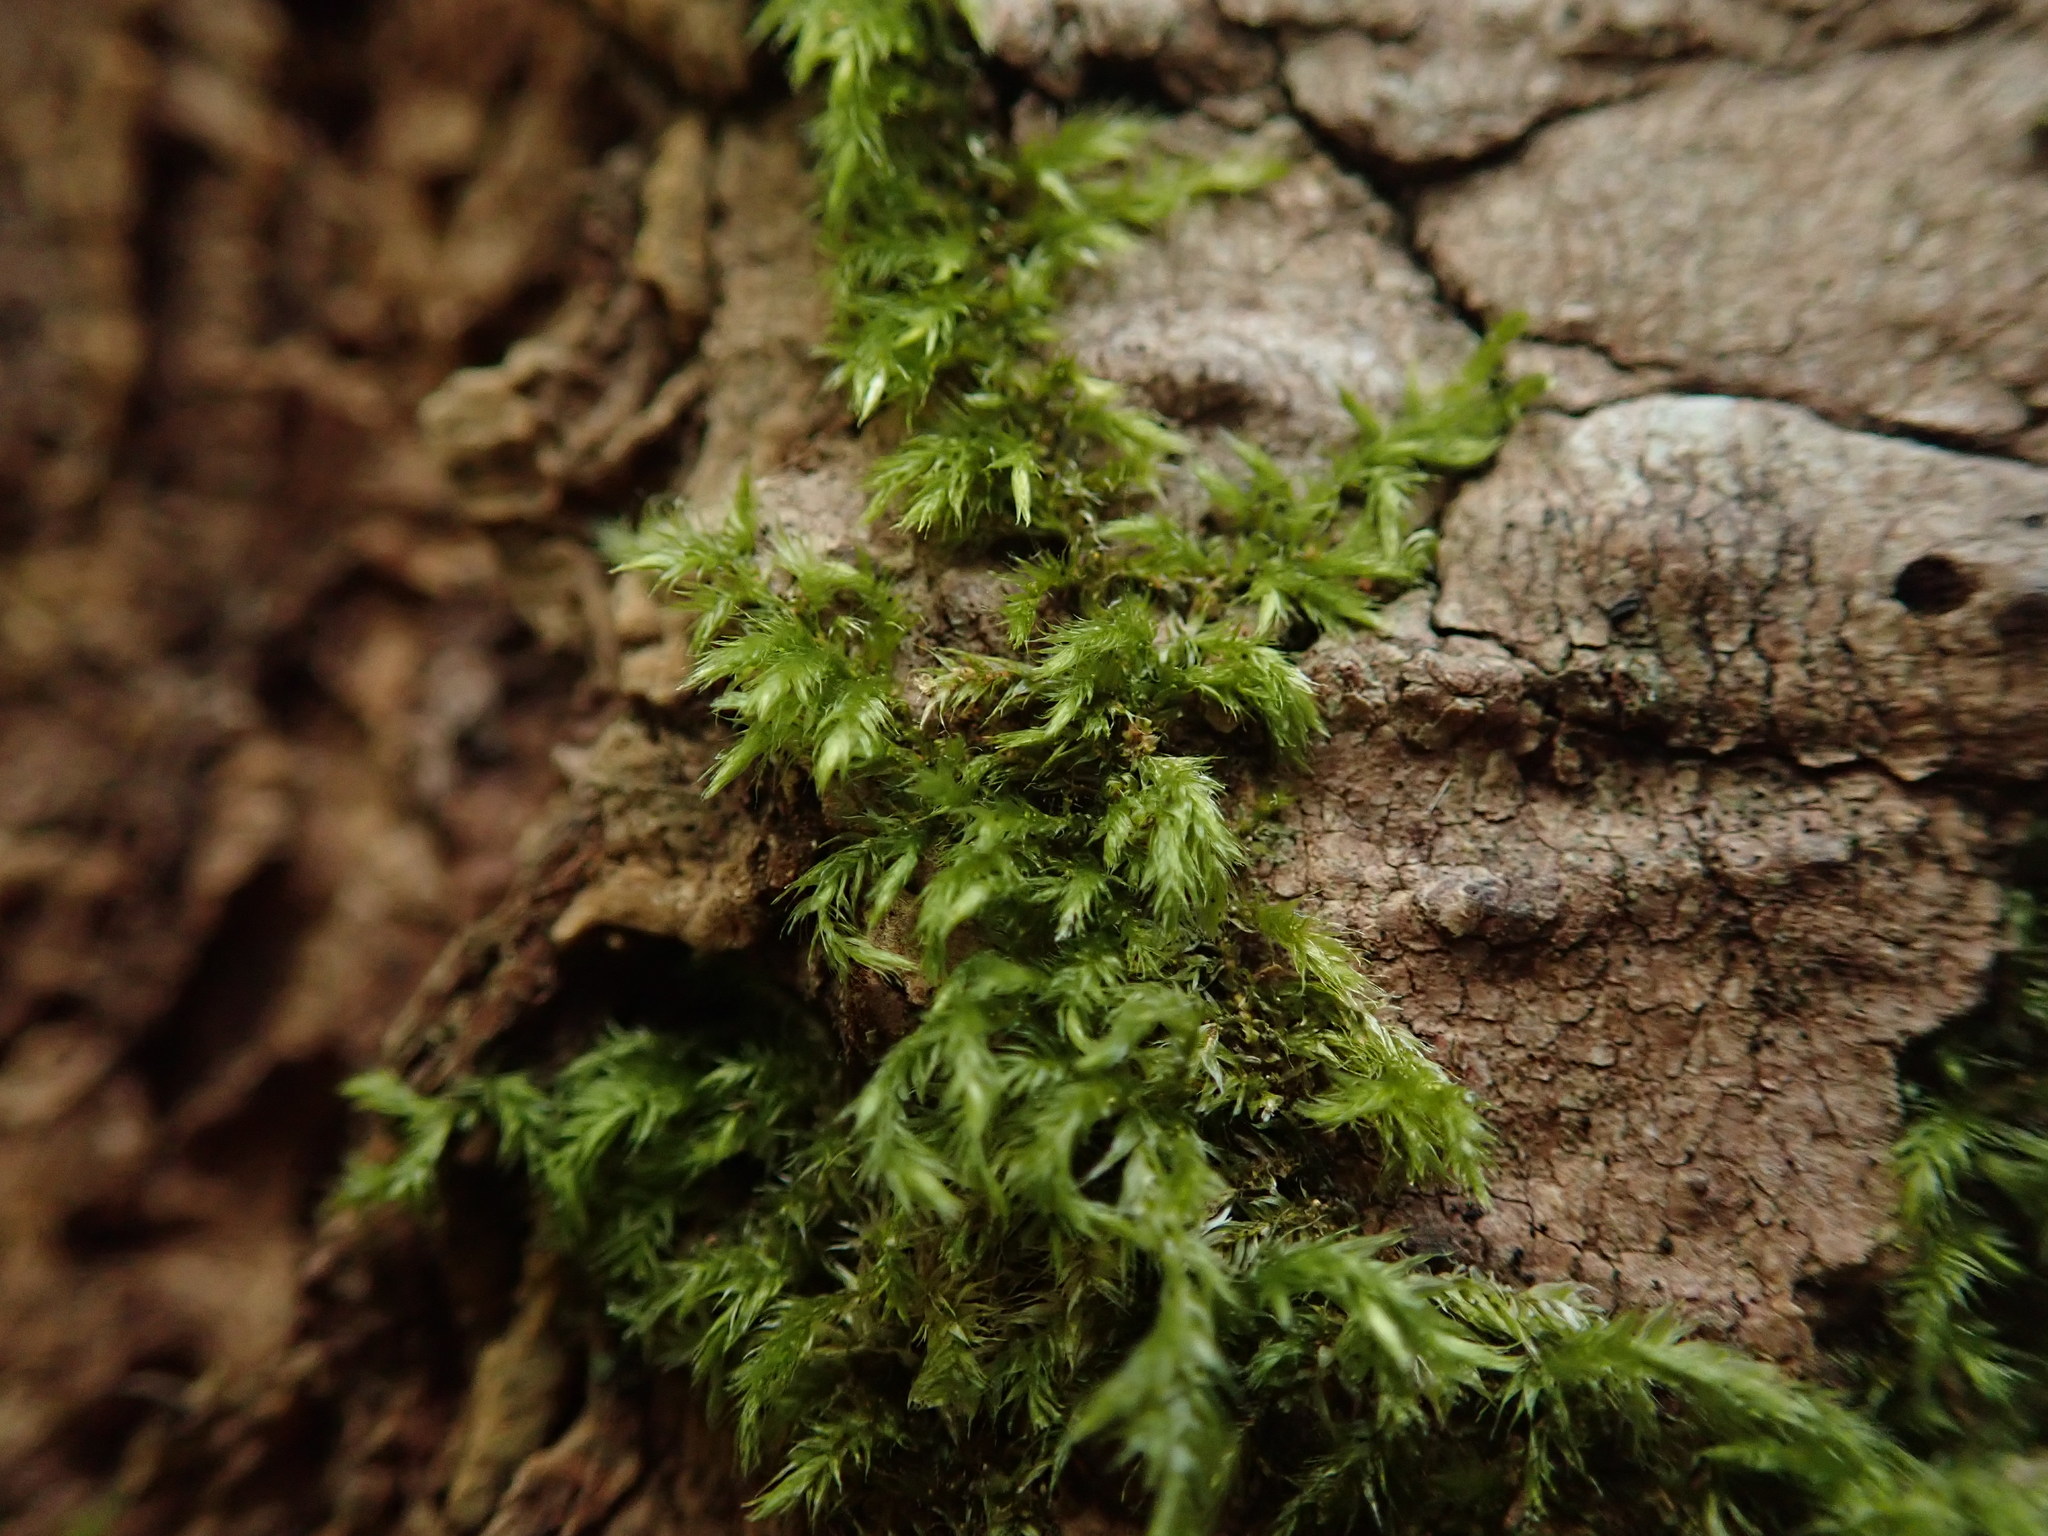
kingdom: Plantae
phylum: Bryophyta
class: Bryopsida
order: Hypnales
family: Lembophyllaceae
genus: Pseudisothecium
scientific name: Pseudisothecium stoloniferum
